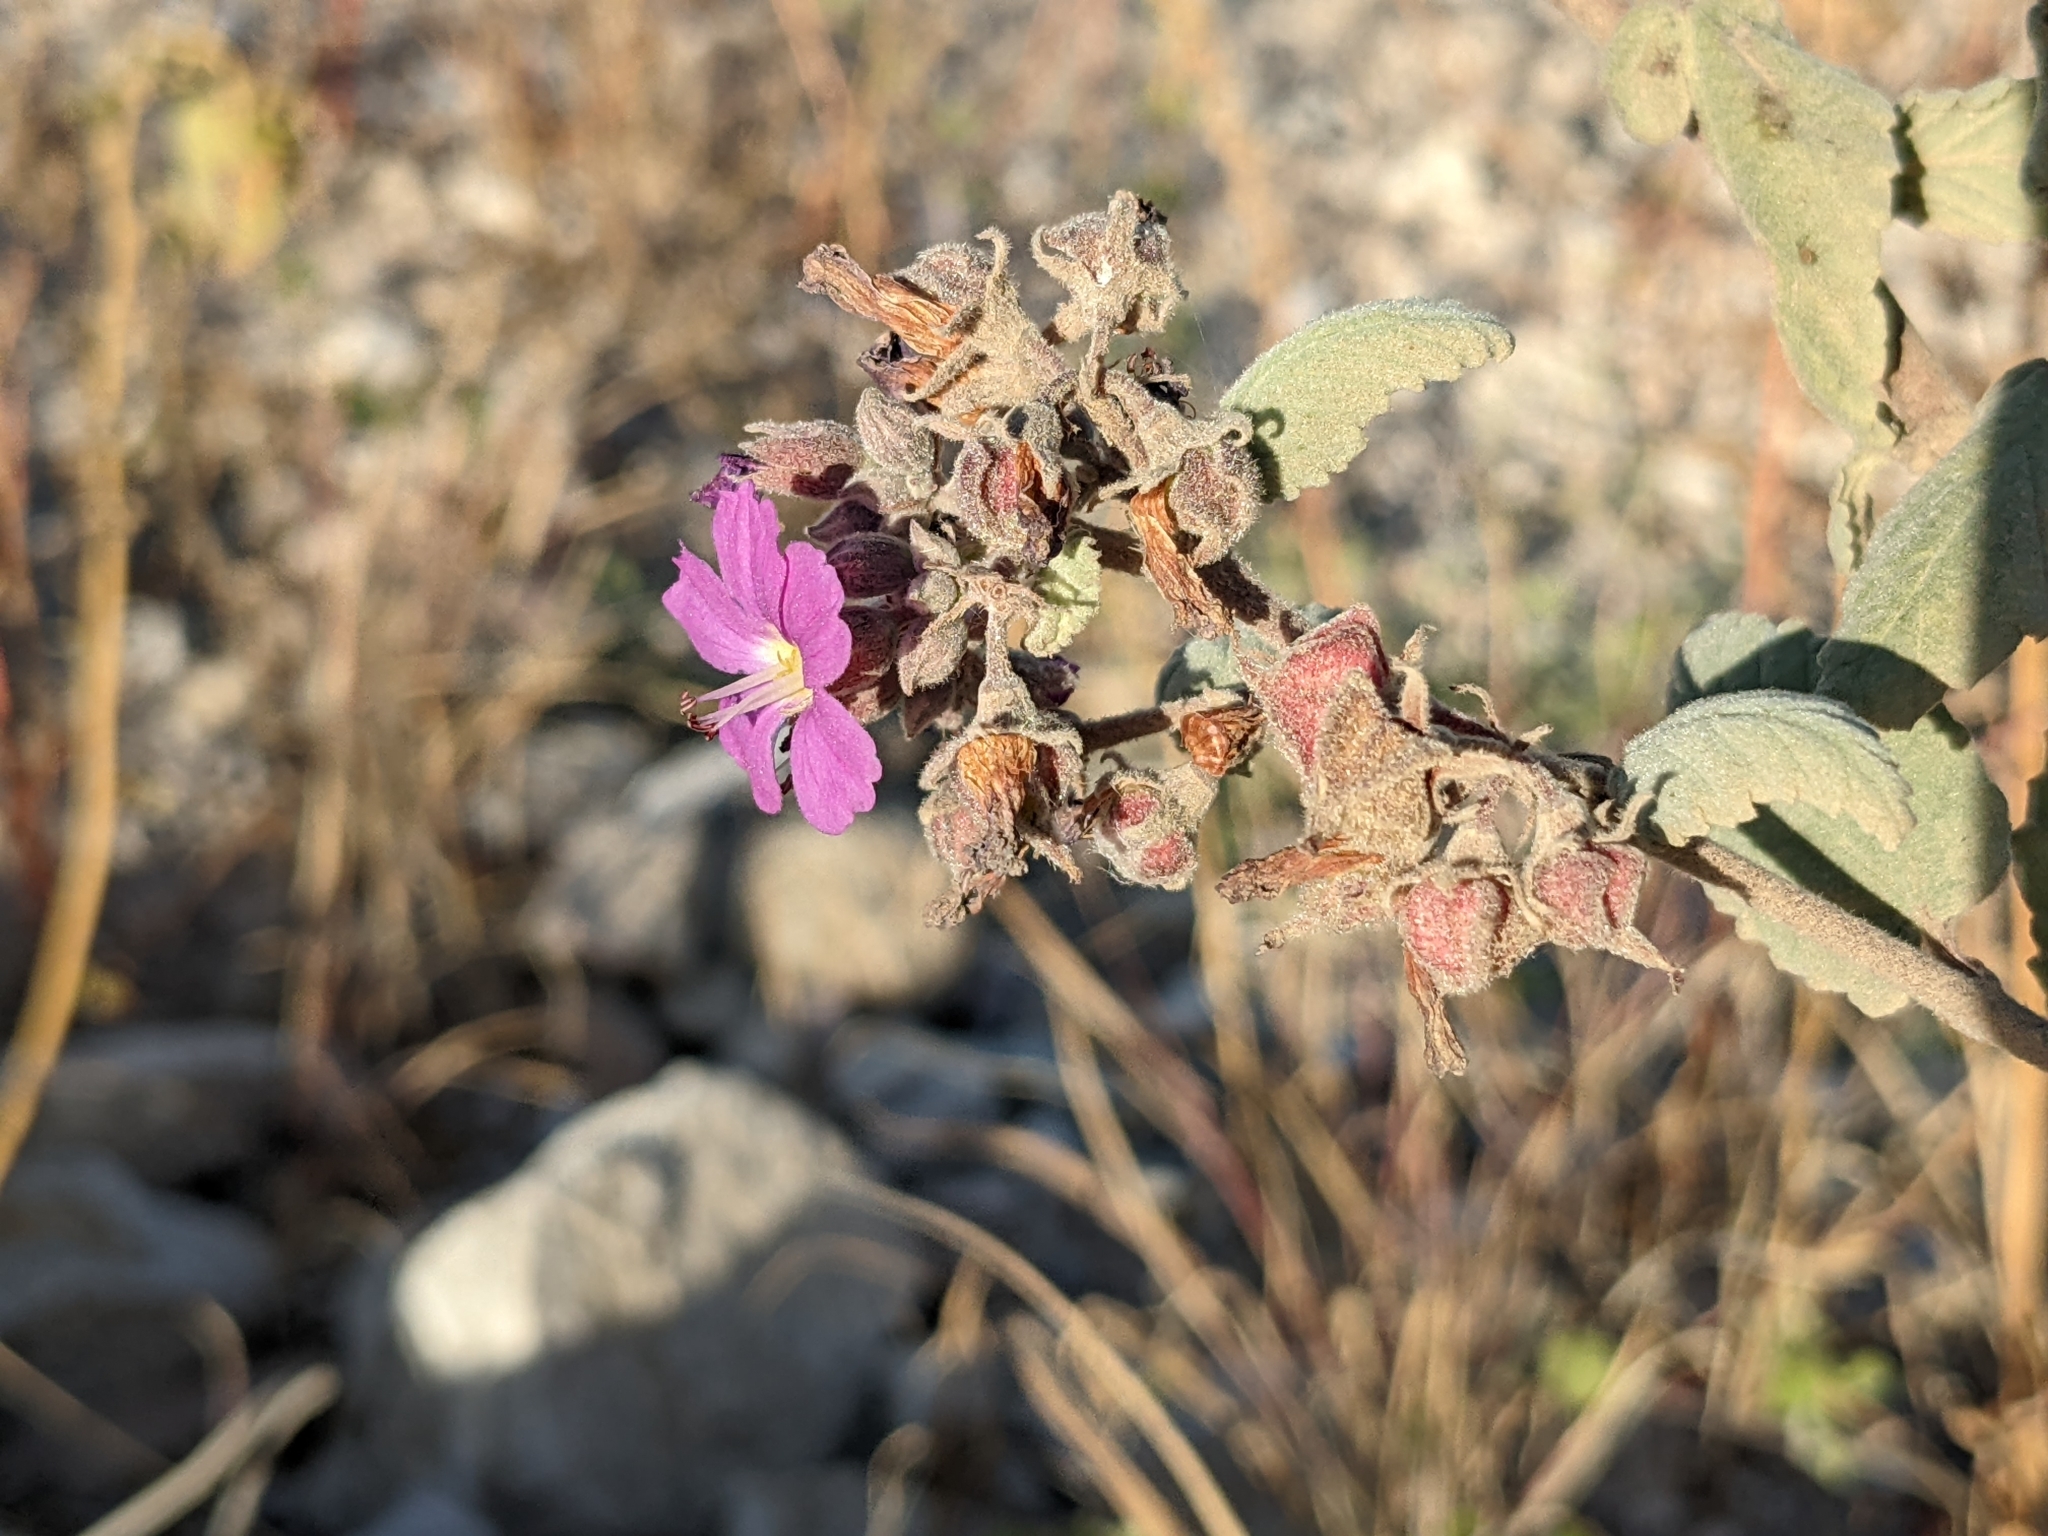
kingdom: Plantae
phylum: Tracheophyta
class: Magnoliopsida
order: Malvales
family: Malvaceae
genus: Melochia
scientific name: Melochia tomentosa
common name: Black torch
